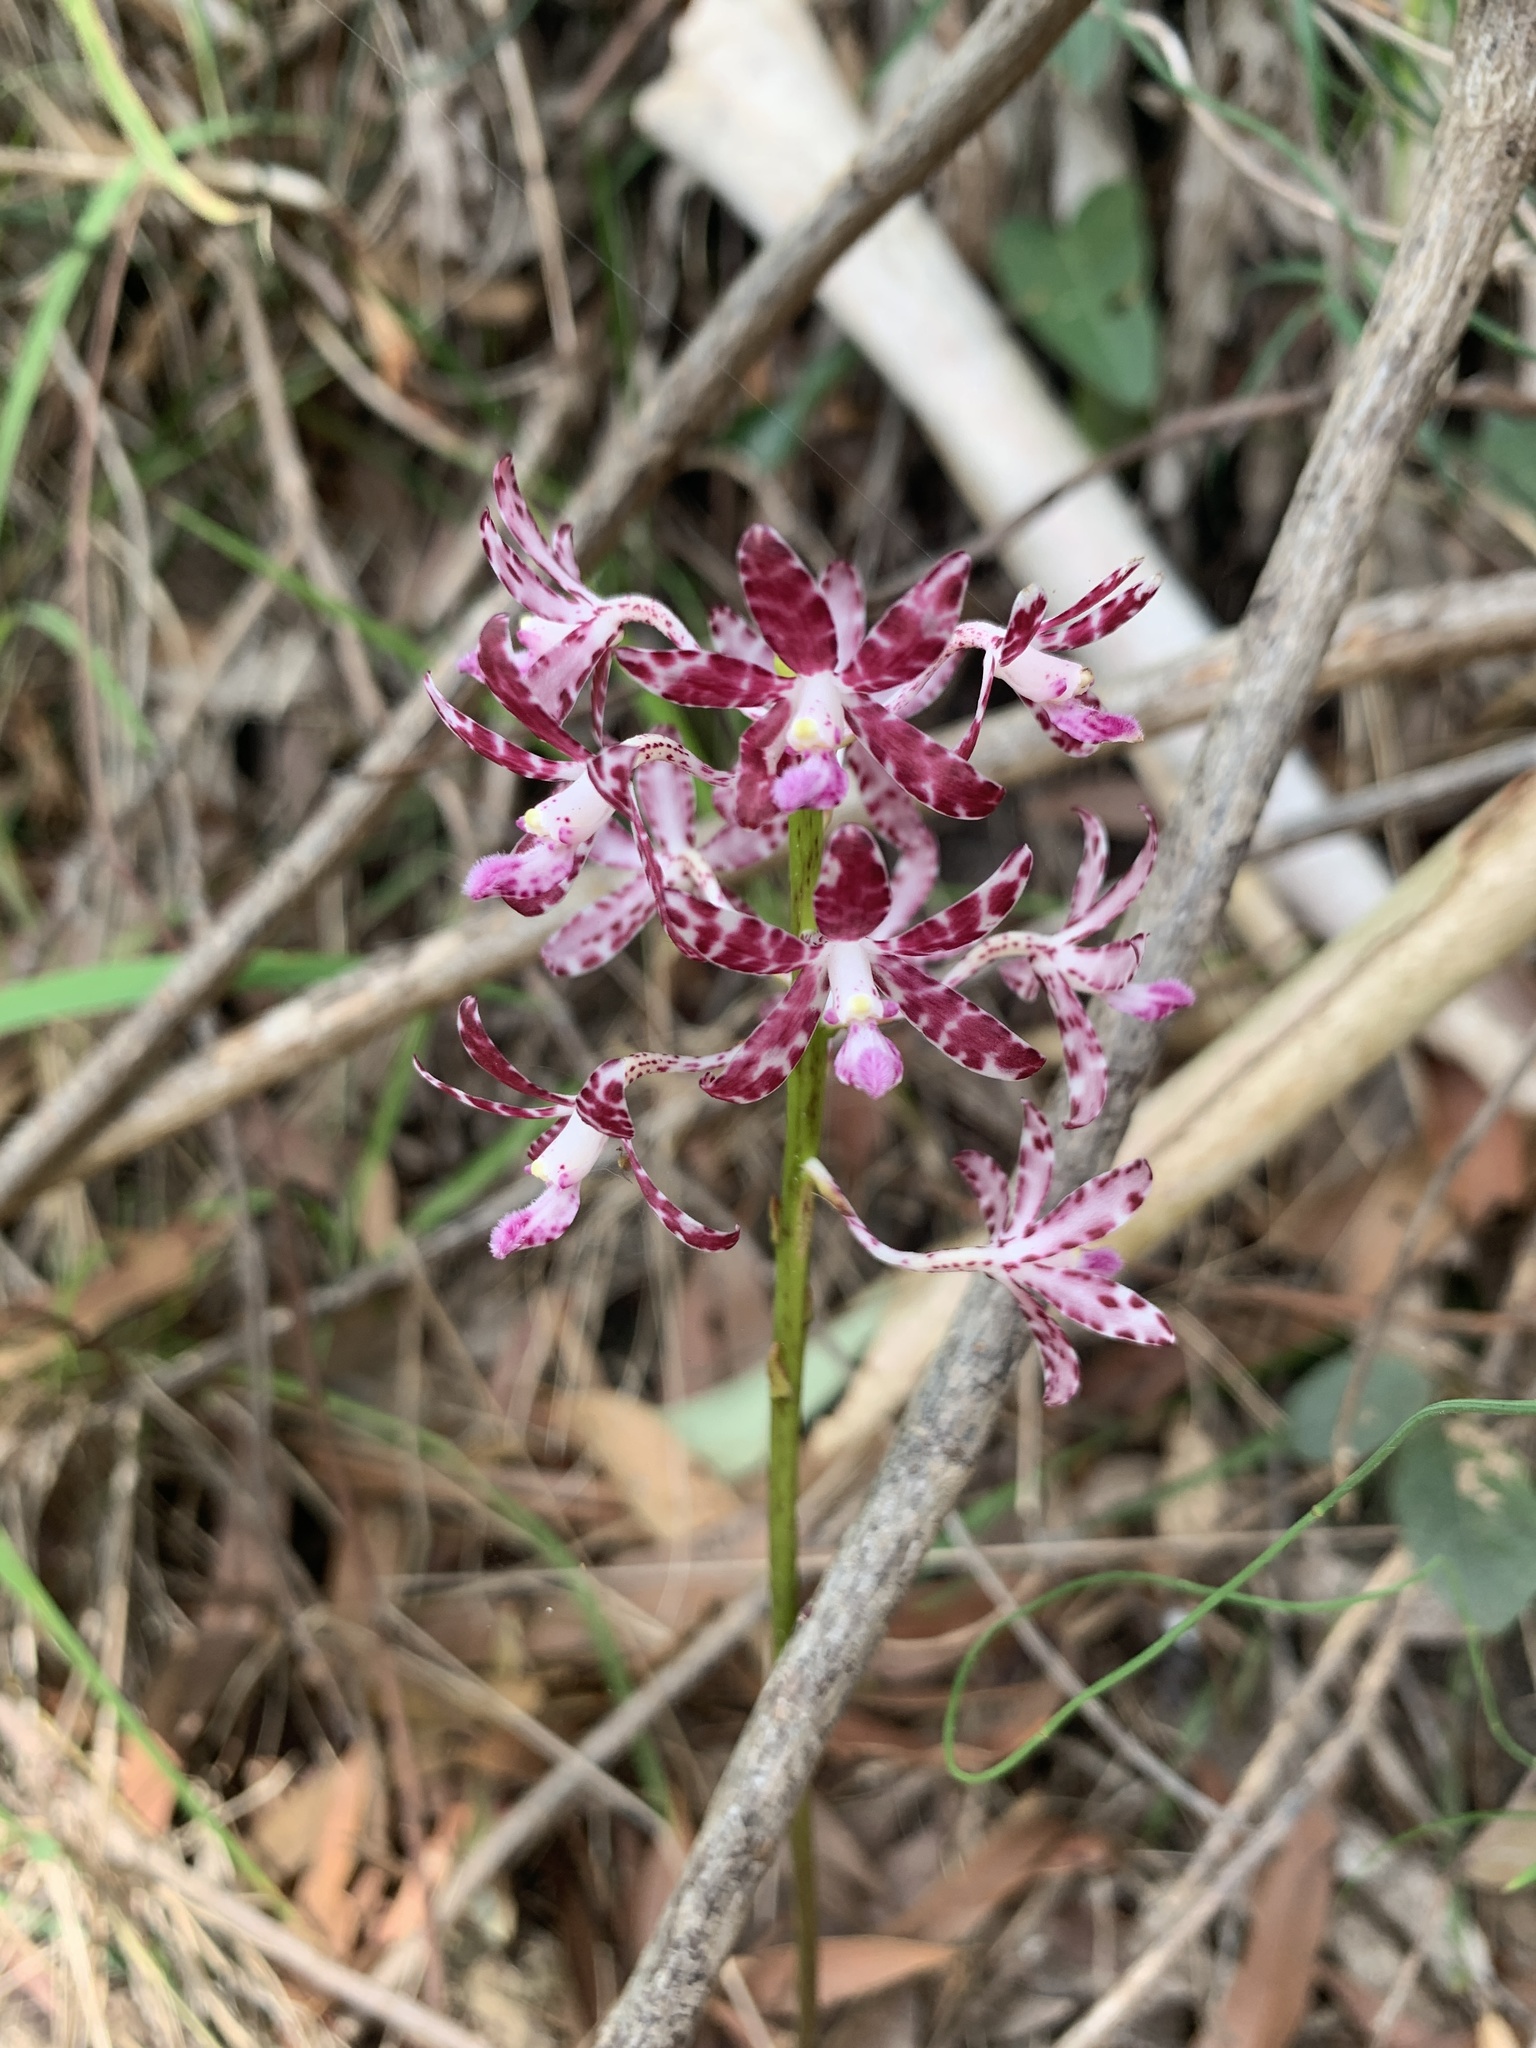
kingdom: Plantae
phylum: Tracheophyta
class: Liliopsida
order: Asparagales
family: Orchidaceae
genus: Dipodium
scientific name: Dipodium variegatum
